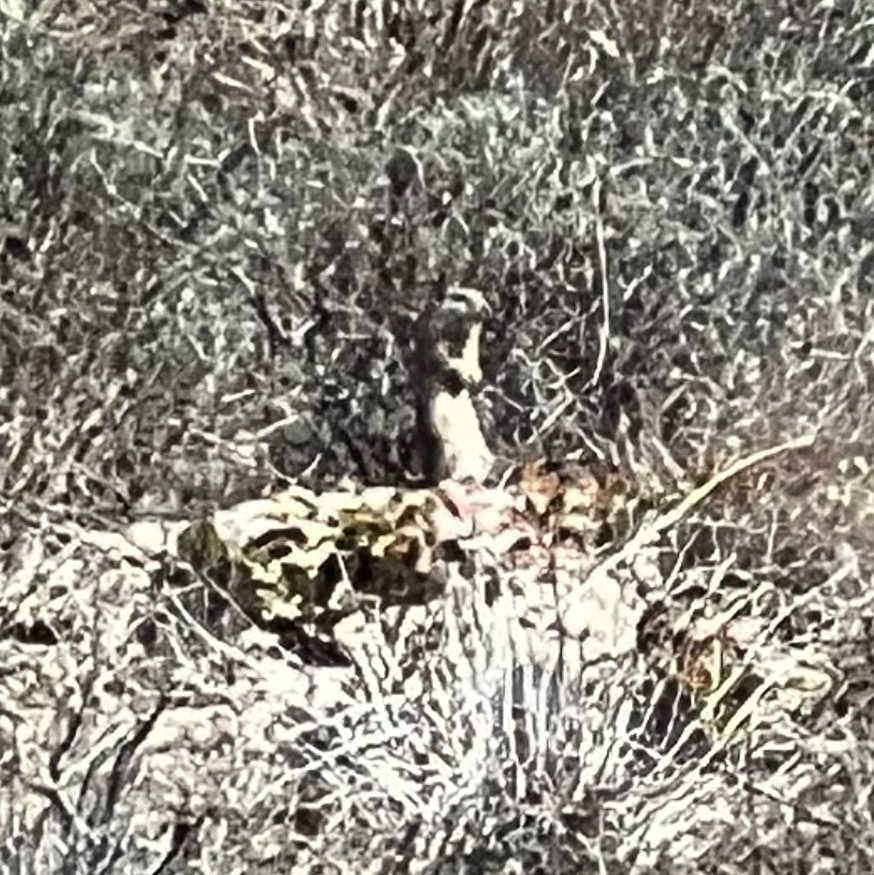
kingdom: Animalia
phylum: Chordata
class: Mammalia
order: Rodentia
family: Sciuridae
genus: Urocitellus
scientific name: Urocitellus armatus
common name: Uinta ground squirrel
